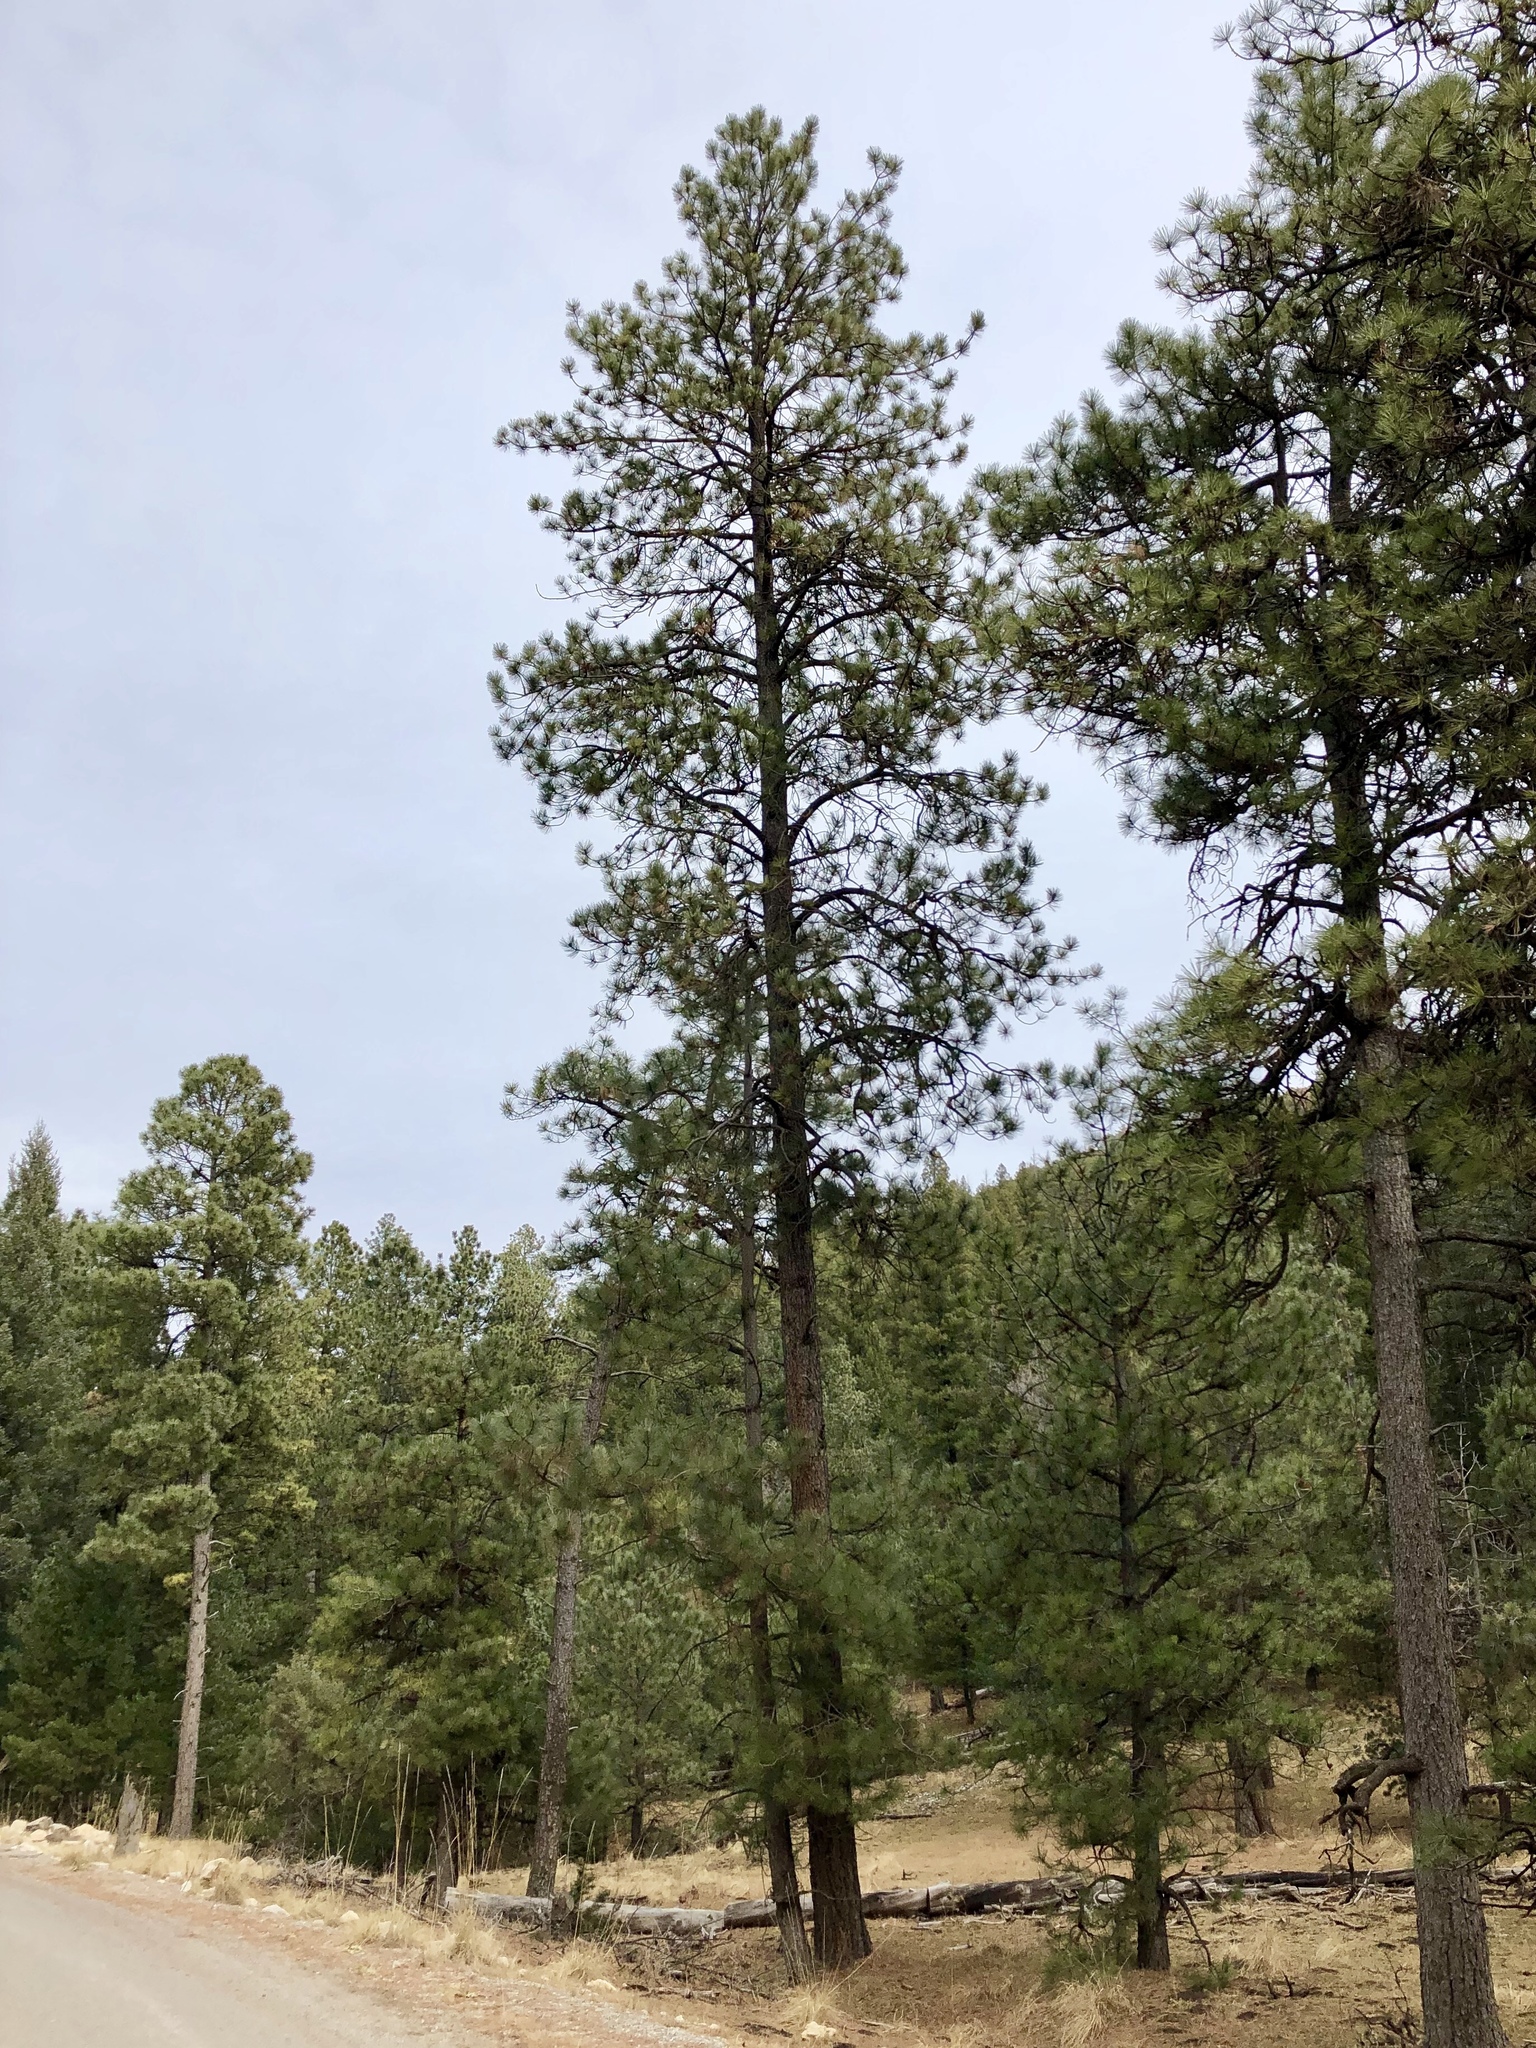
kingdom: Plantae
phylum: Tracheophyta
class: Pinopsida
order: Pinales
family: Pinaceae
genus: Pinus
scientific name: Pinus ponderosa
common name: Western yellow-pine
